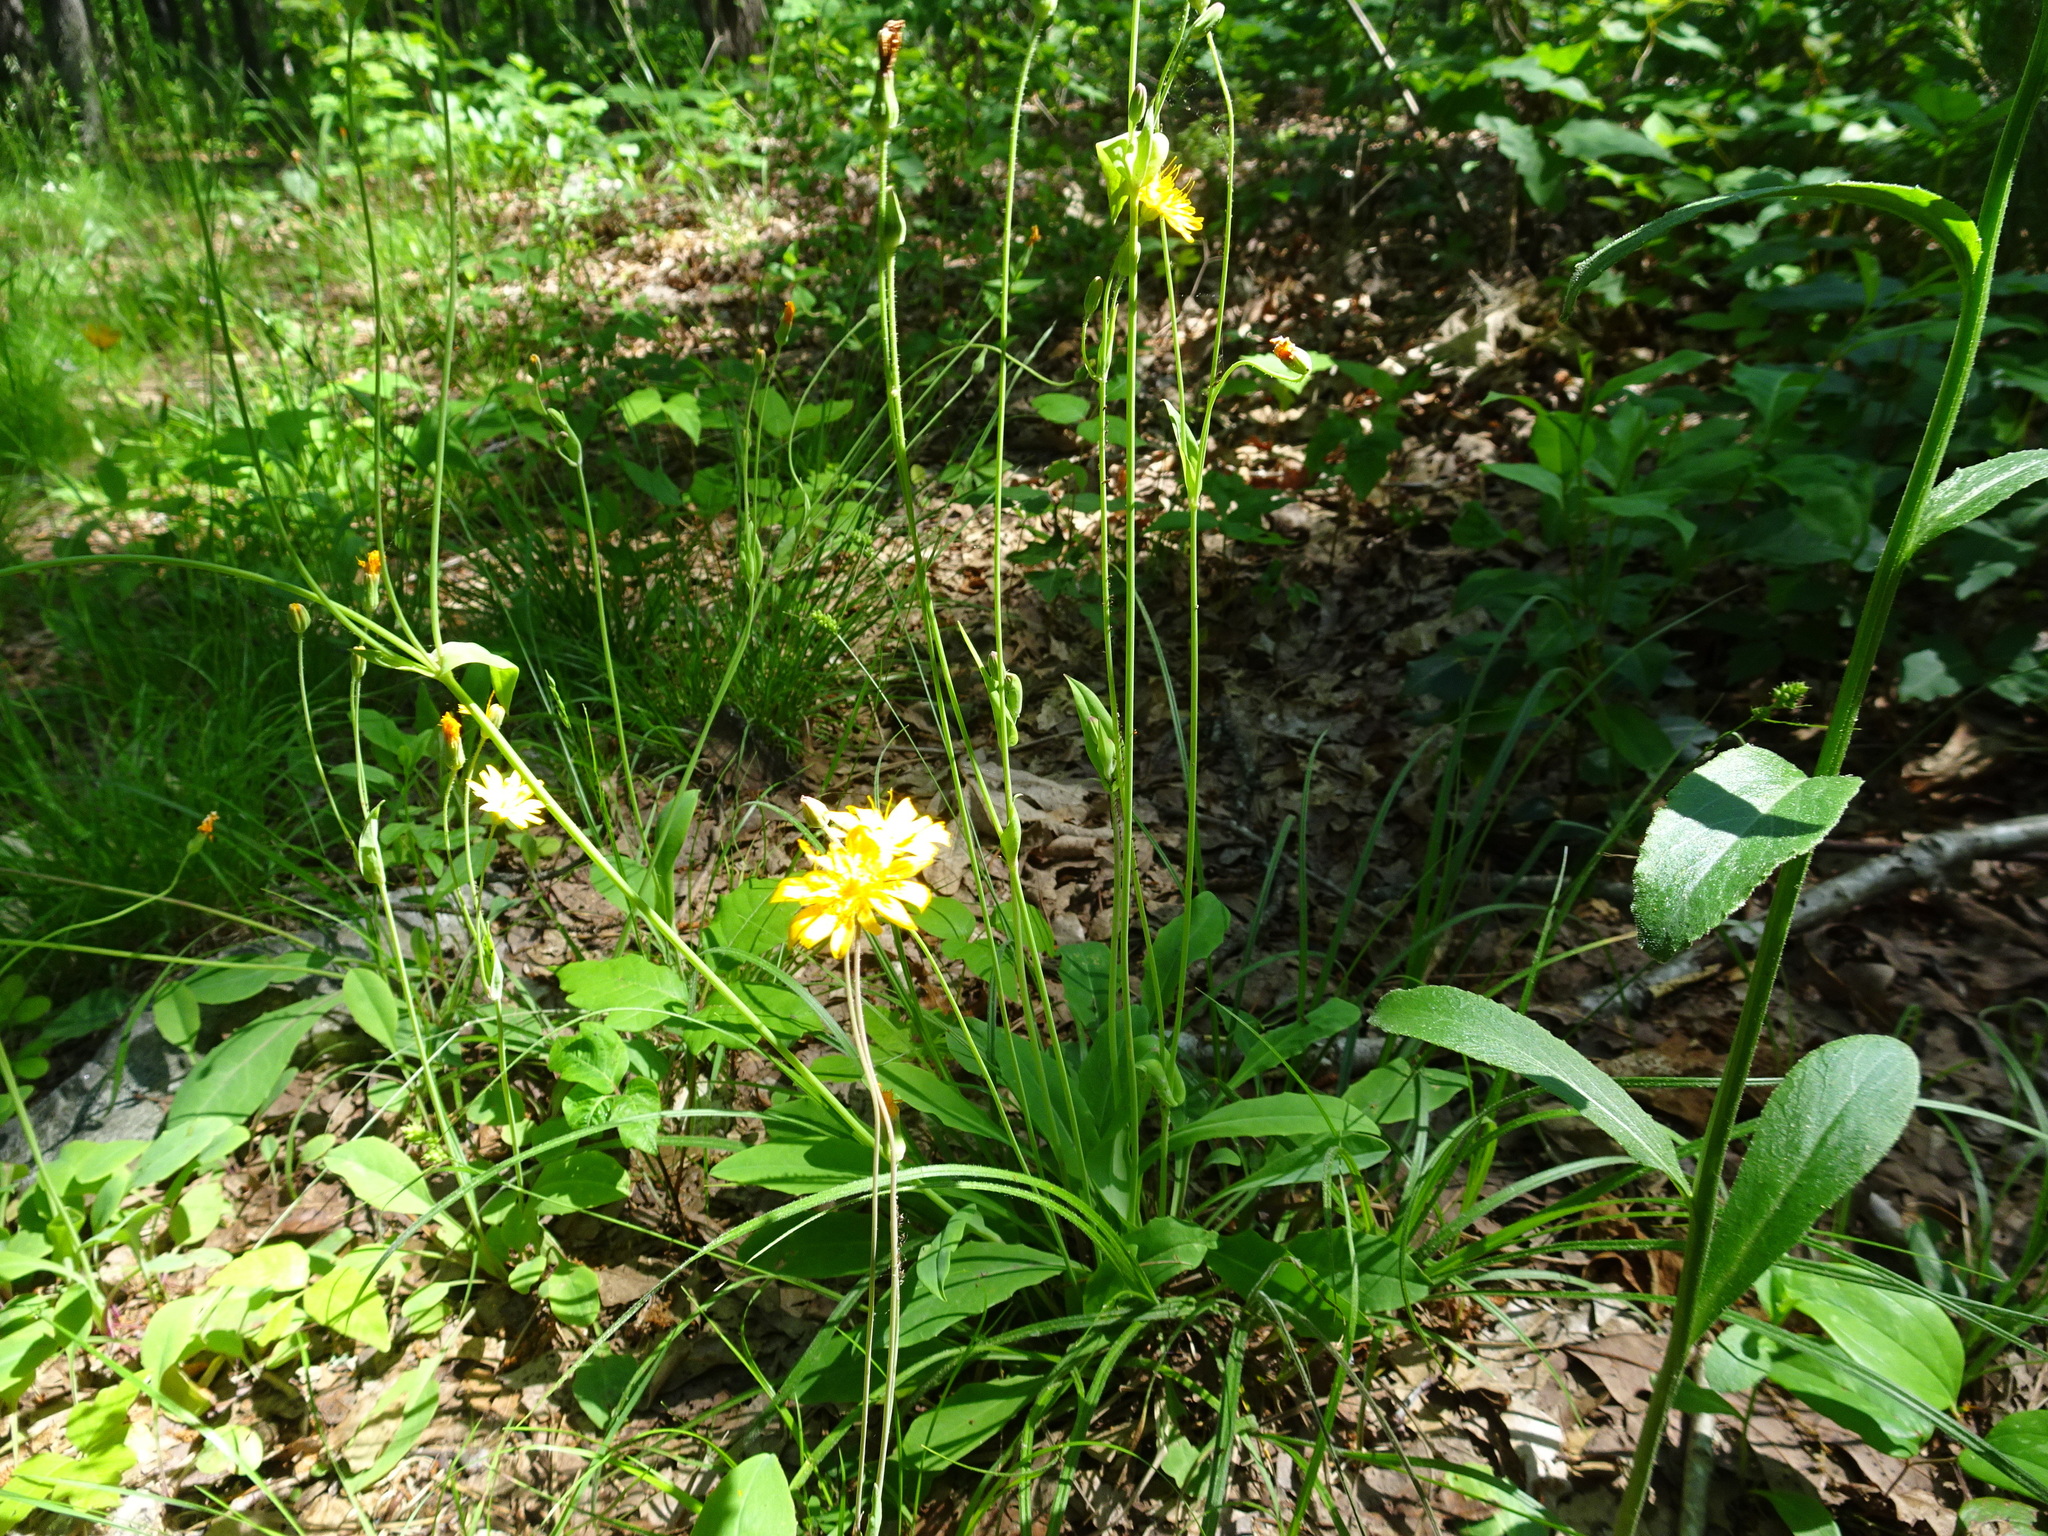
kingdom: Plantae
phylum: Tracheophyta
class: Magnoliopsida
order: Asterales
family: Asteraceae
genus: Krigia
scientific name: Krigia biflora
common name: Orange dwarf-dandelion
